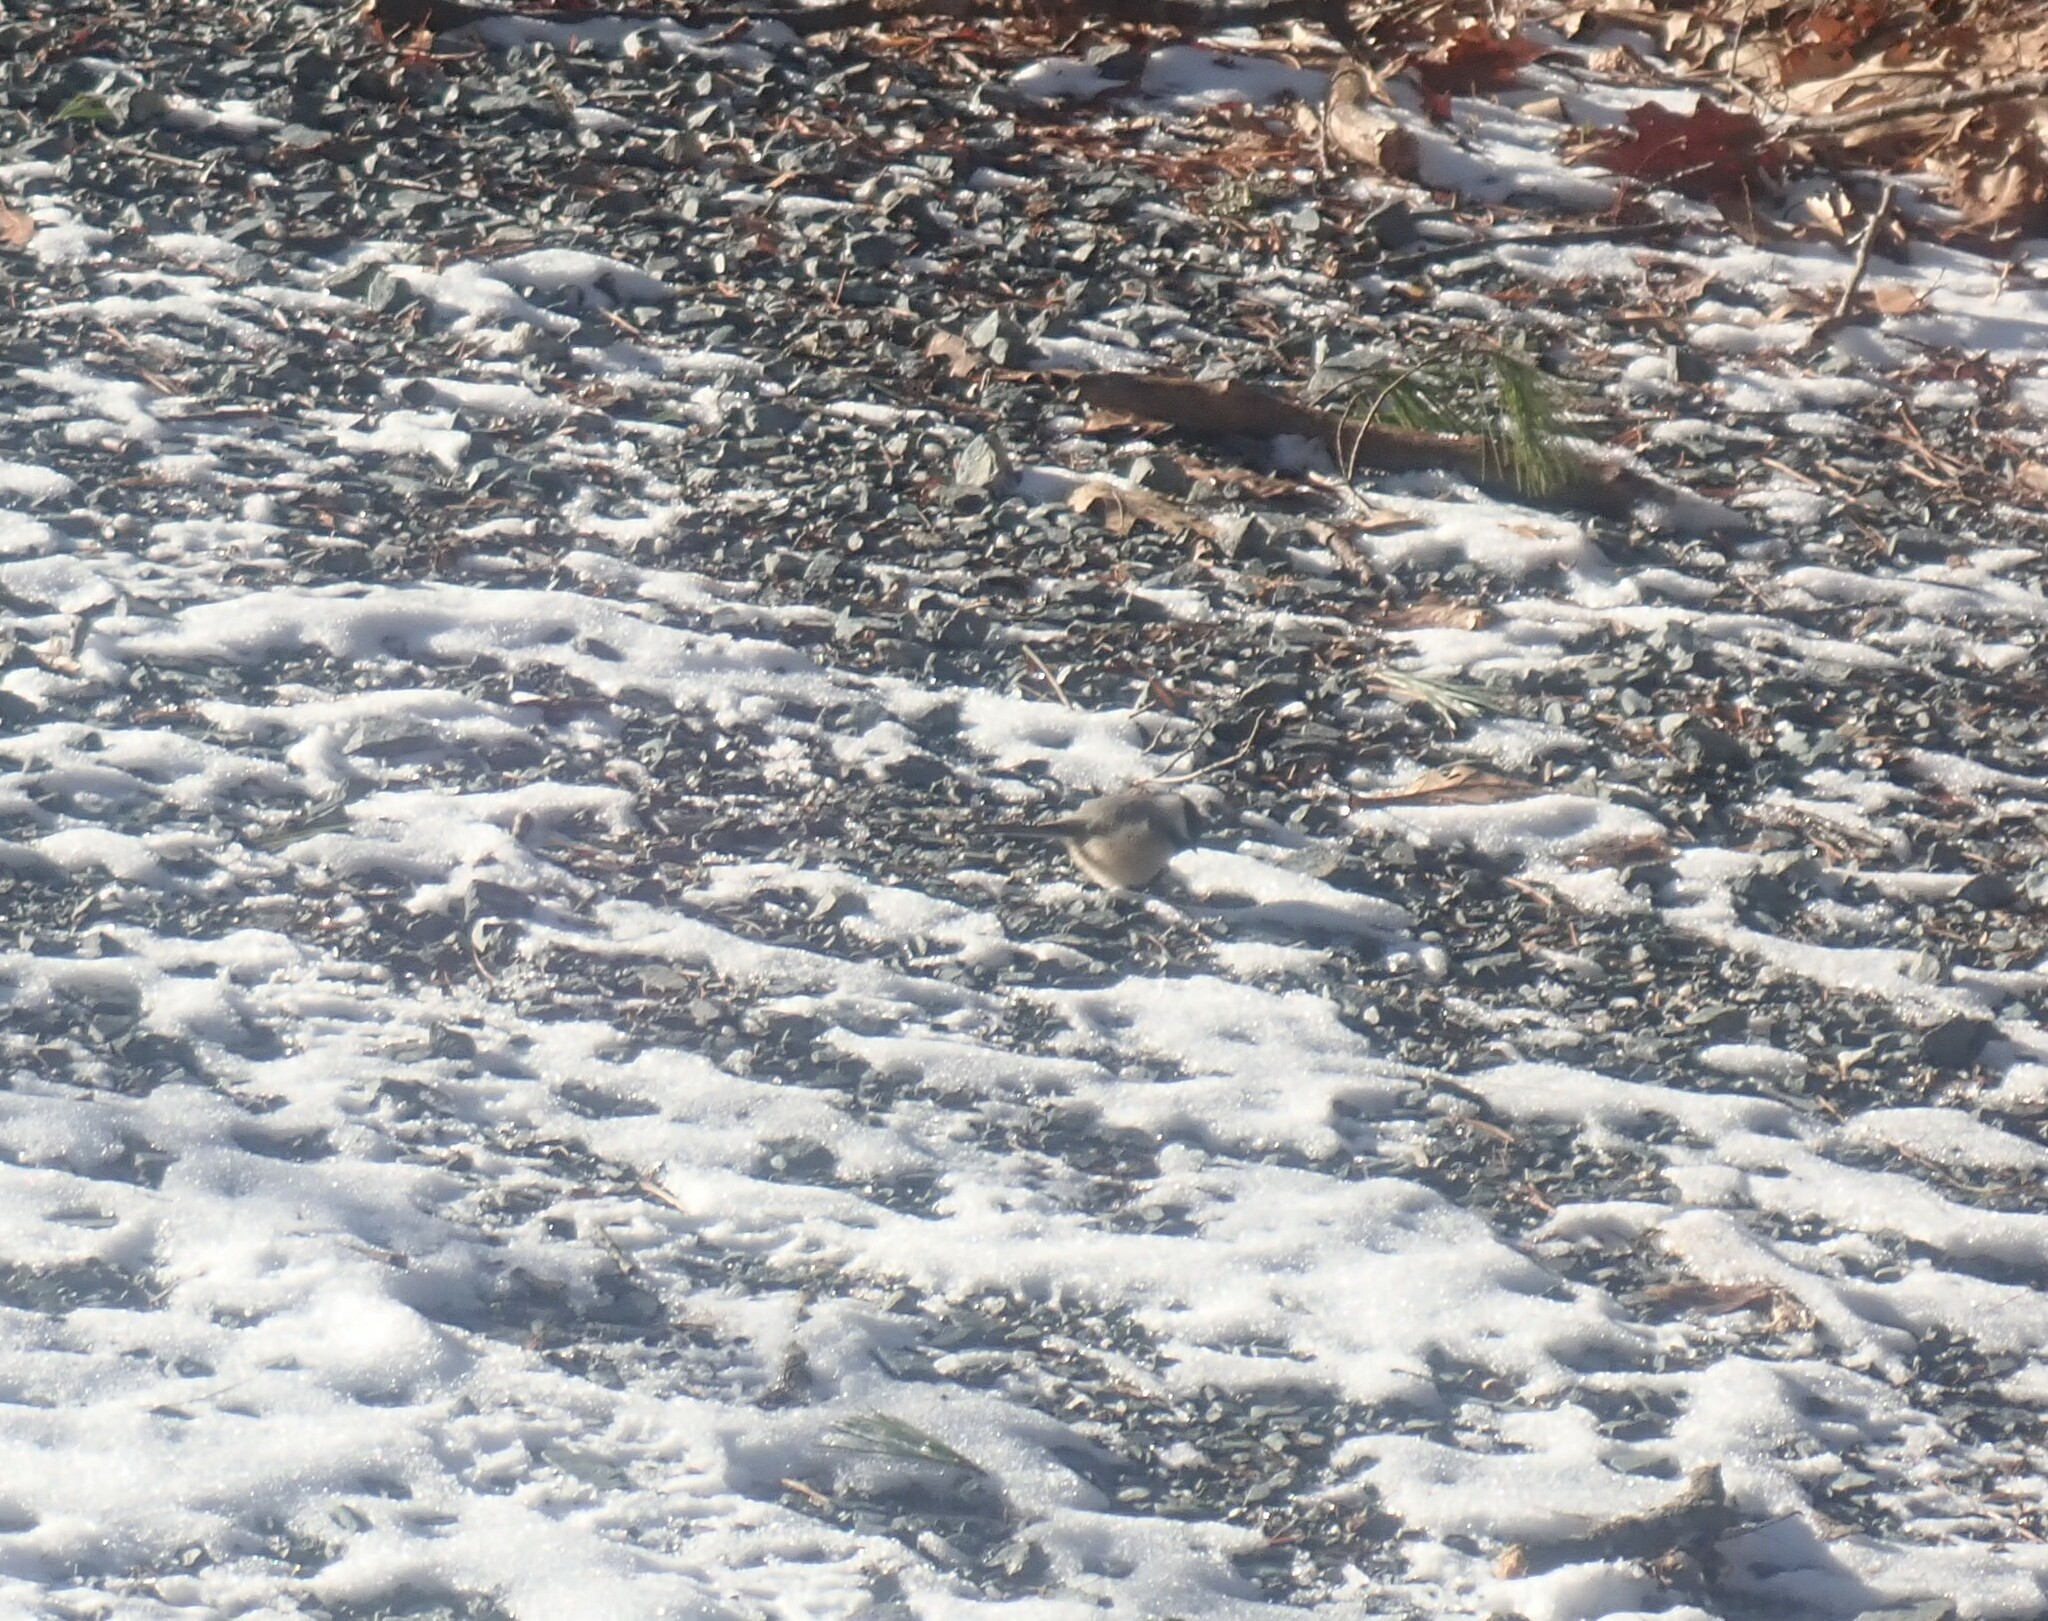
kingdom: Animalia
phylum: Chordata
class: Aves
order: Passeriformes
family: Paridae
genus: Poecile
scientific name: Poecile atricapillus
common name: Black-capped chickadee
